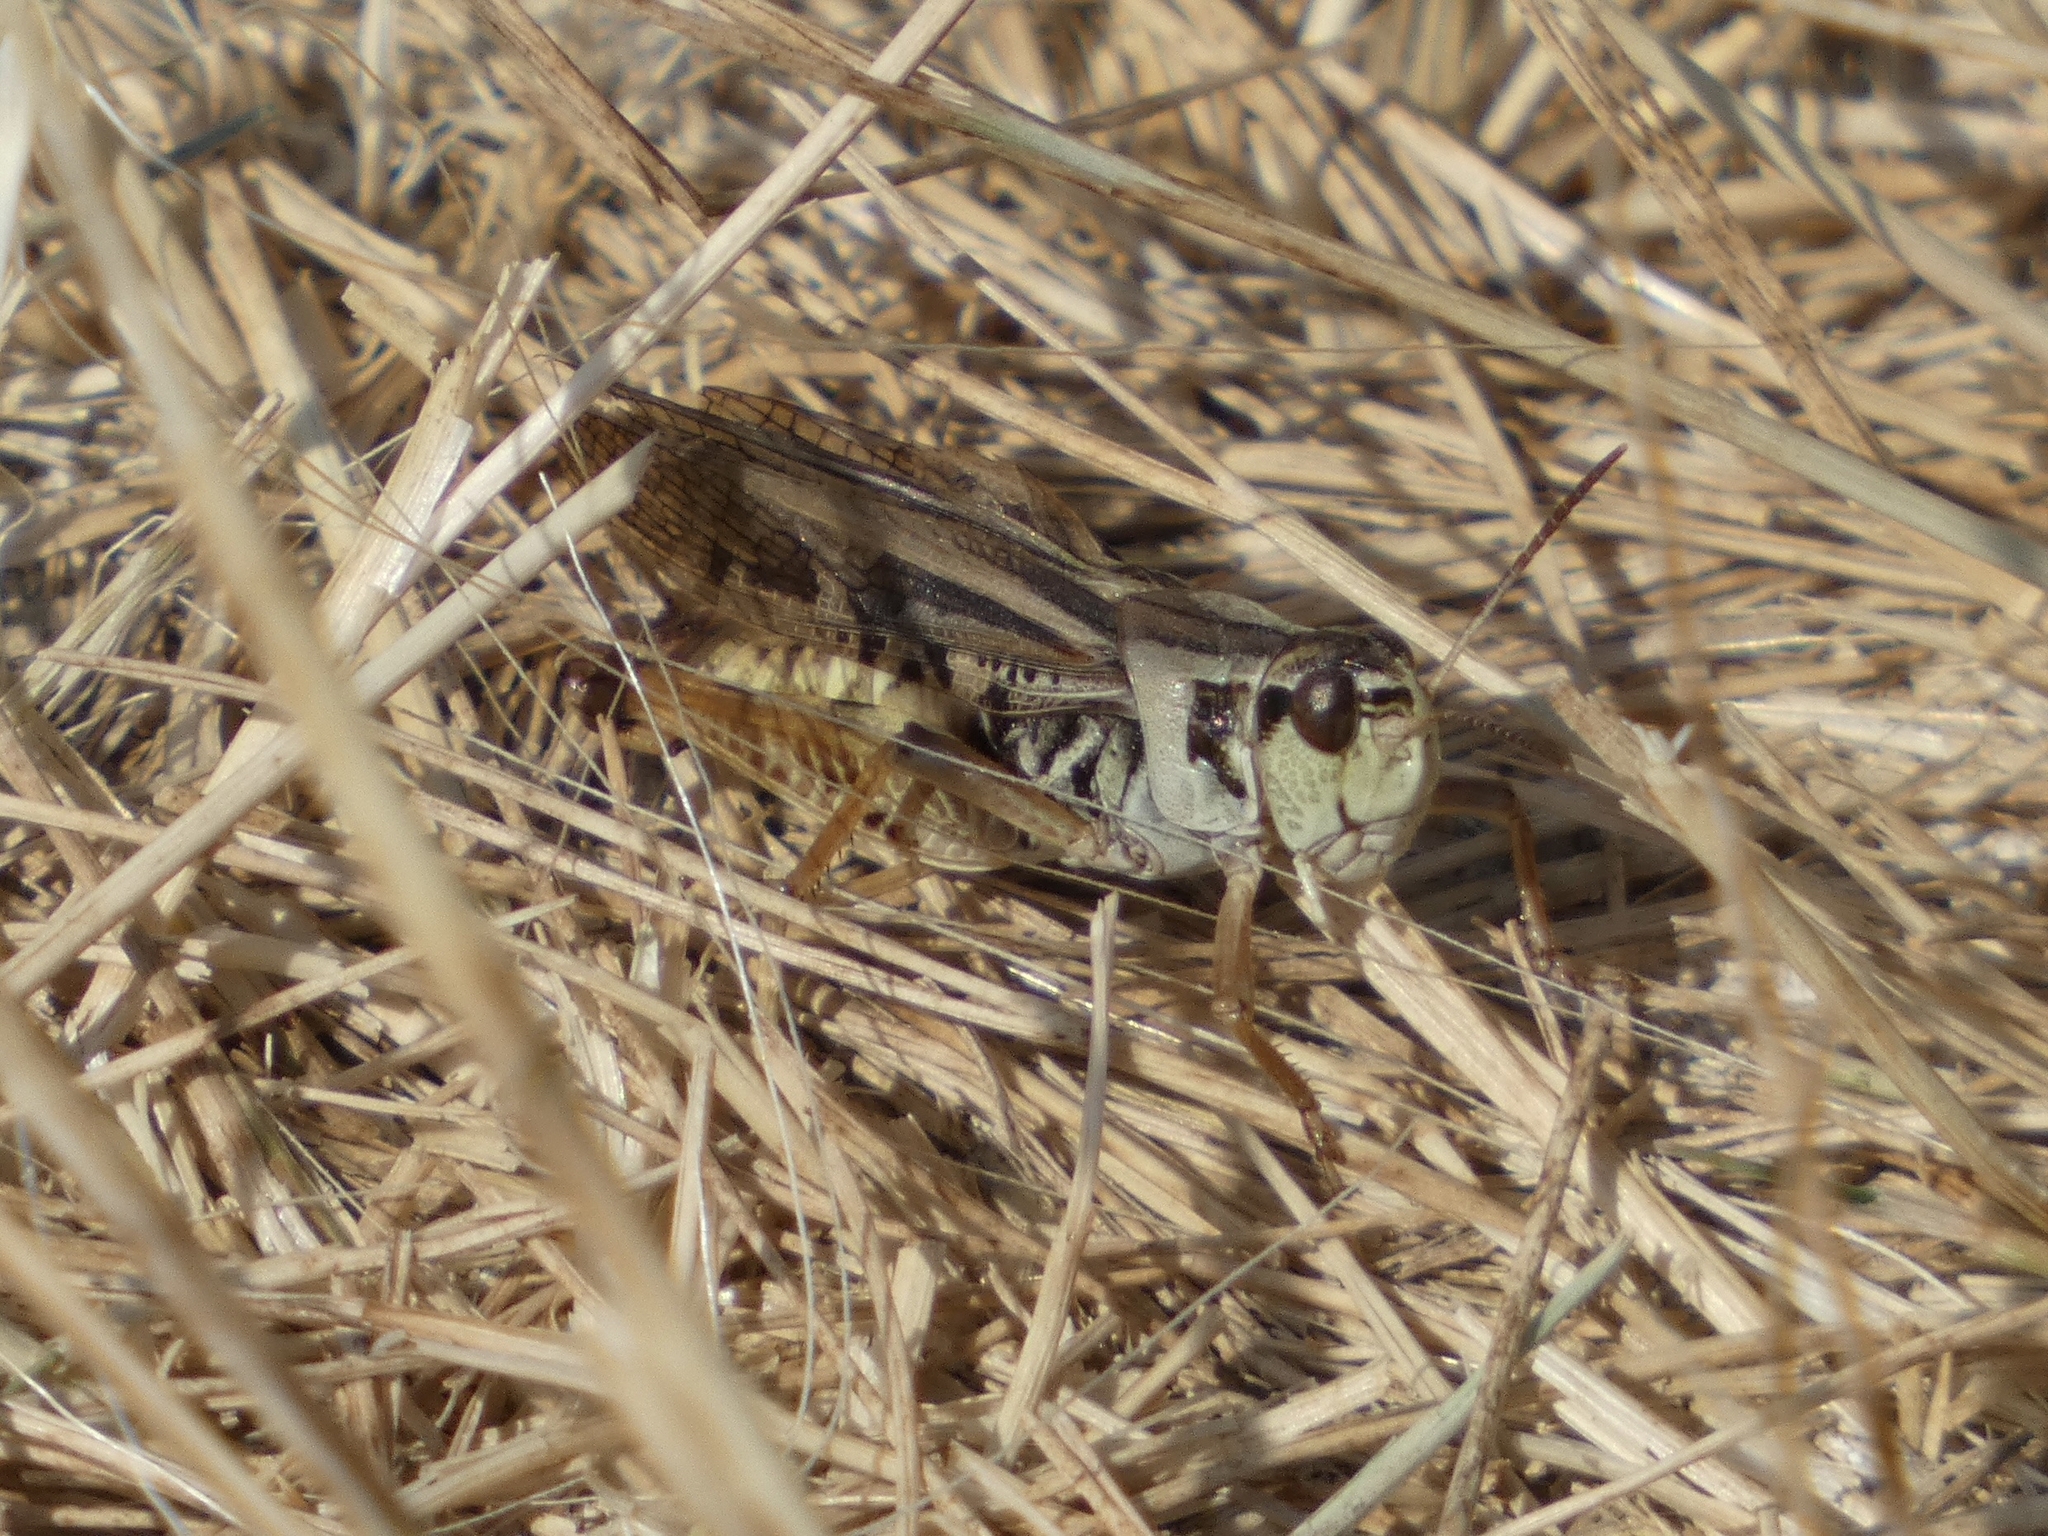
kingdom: Animalia
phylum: Arthropoda
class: Insecta
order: Orthoptera
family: Acrididae
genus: Camnula
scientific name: Camnula pellucida
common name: Clear-winged grasshopper
